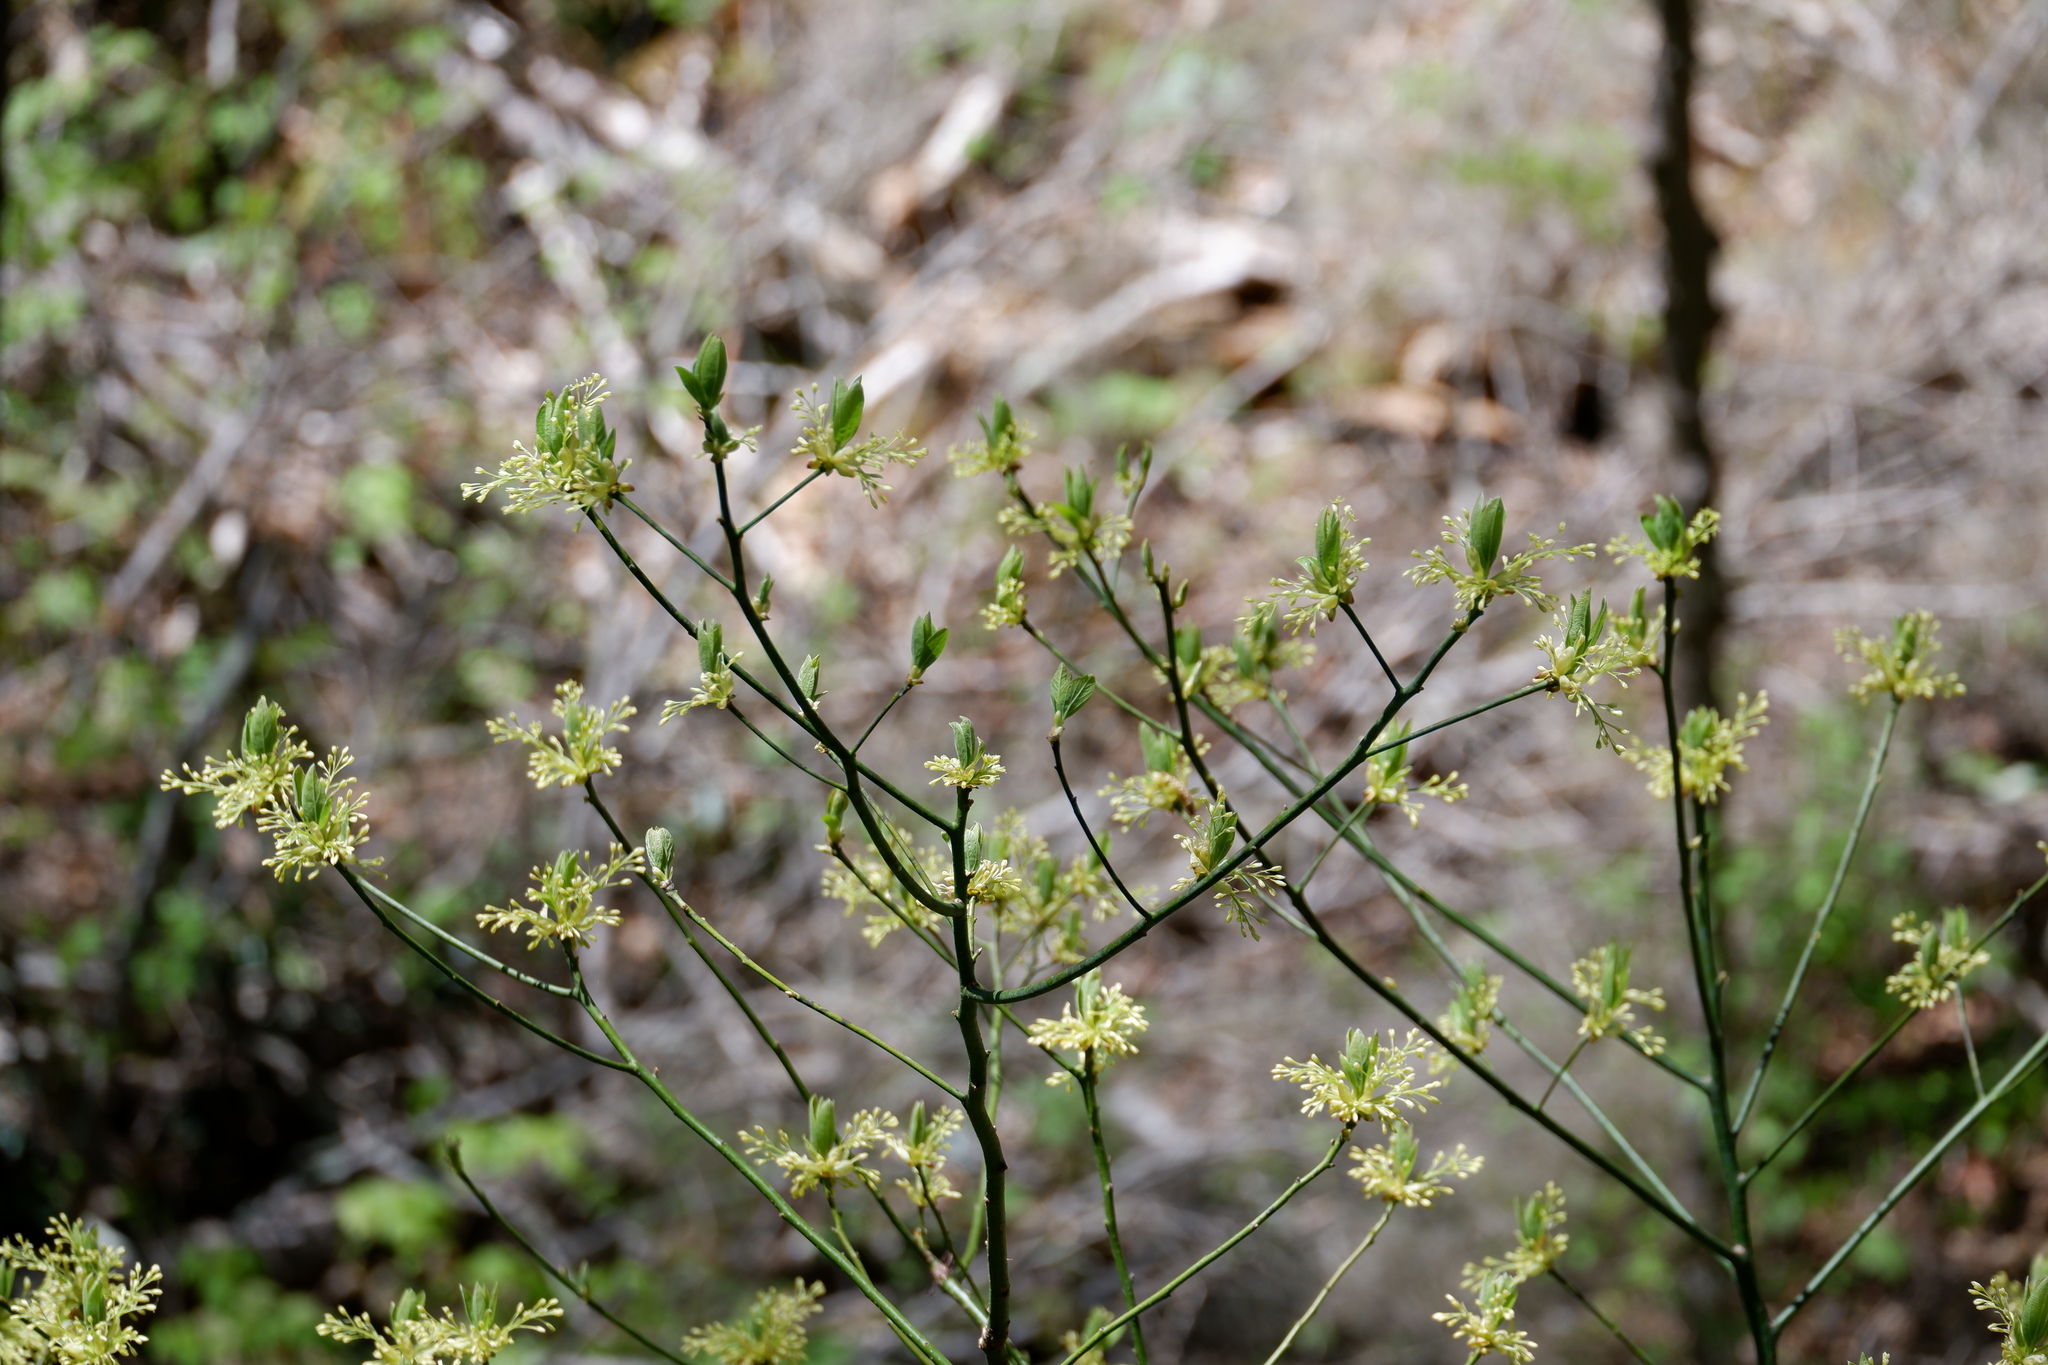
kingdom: Plantae
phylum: Tracheophyta
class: Magnoliopsida
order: Laurales
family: Lauraceae
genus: Sassafras
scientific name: Sassafras albidum
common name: Sassafras
